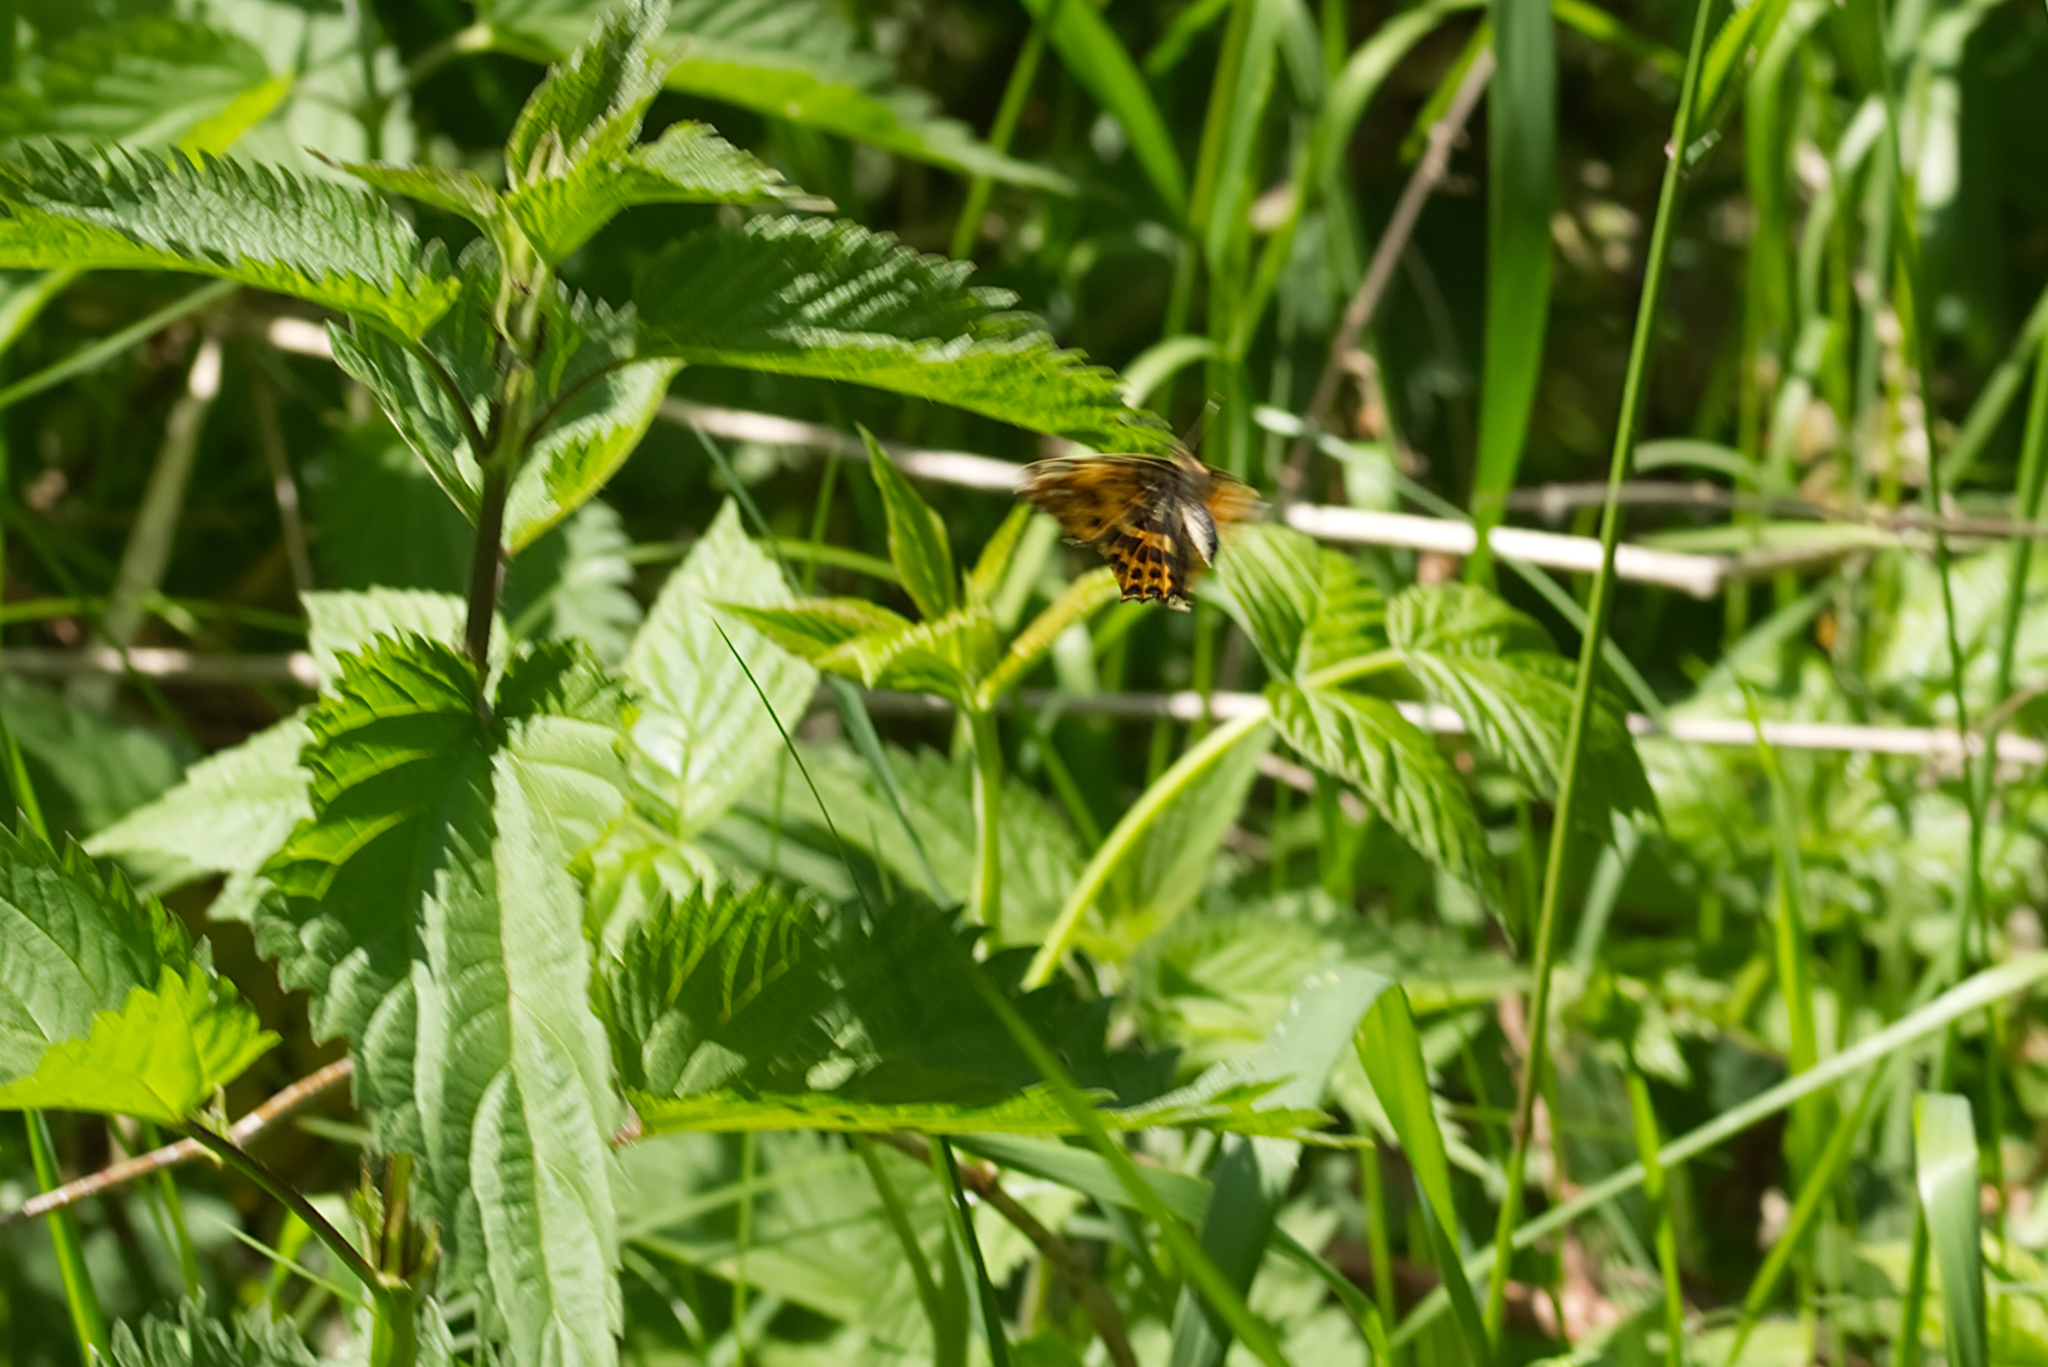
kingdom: Animalia
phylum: Arthropoda
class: Insecta
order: Lepidoptera
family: Nymphalidae
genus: Araschnia
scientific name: Araschnia levana
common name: Map butterfly
